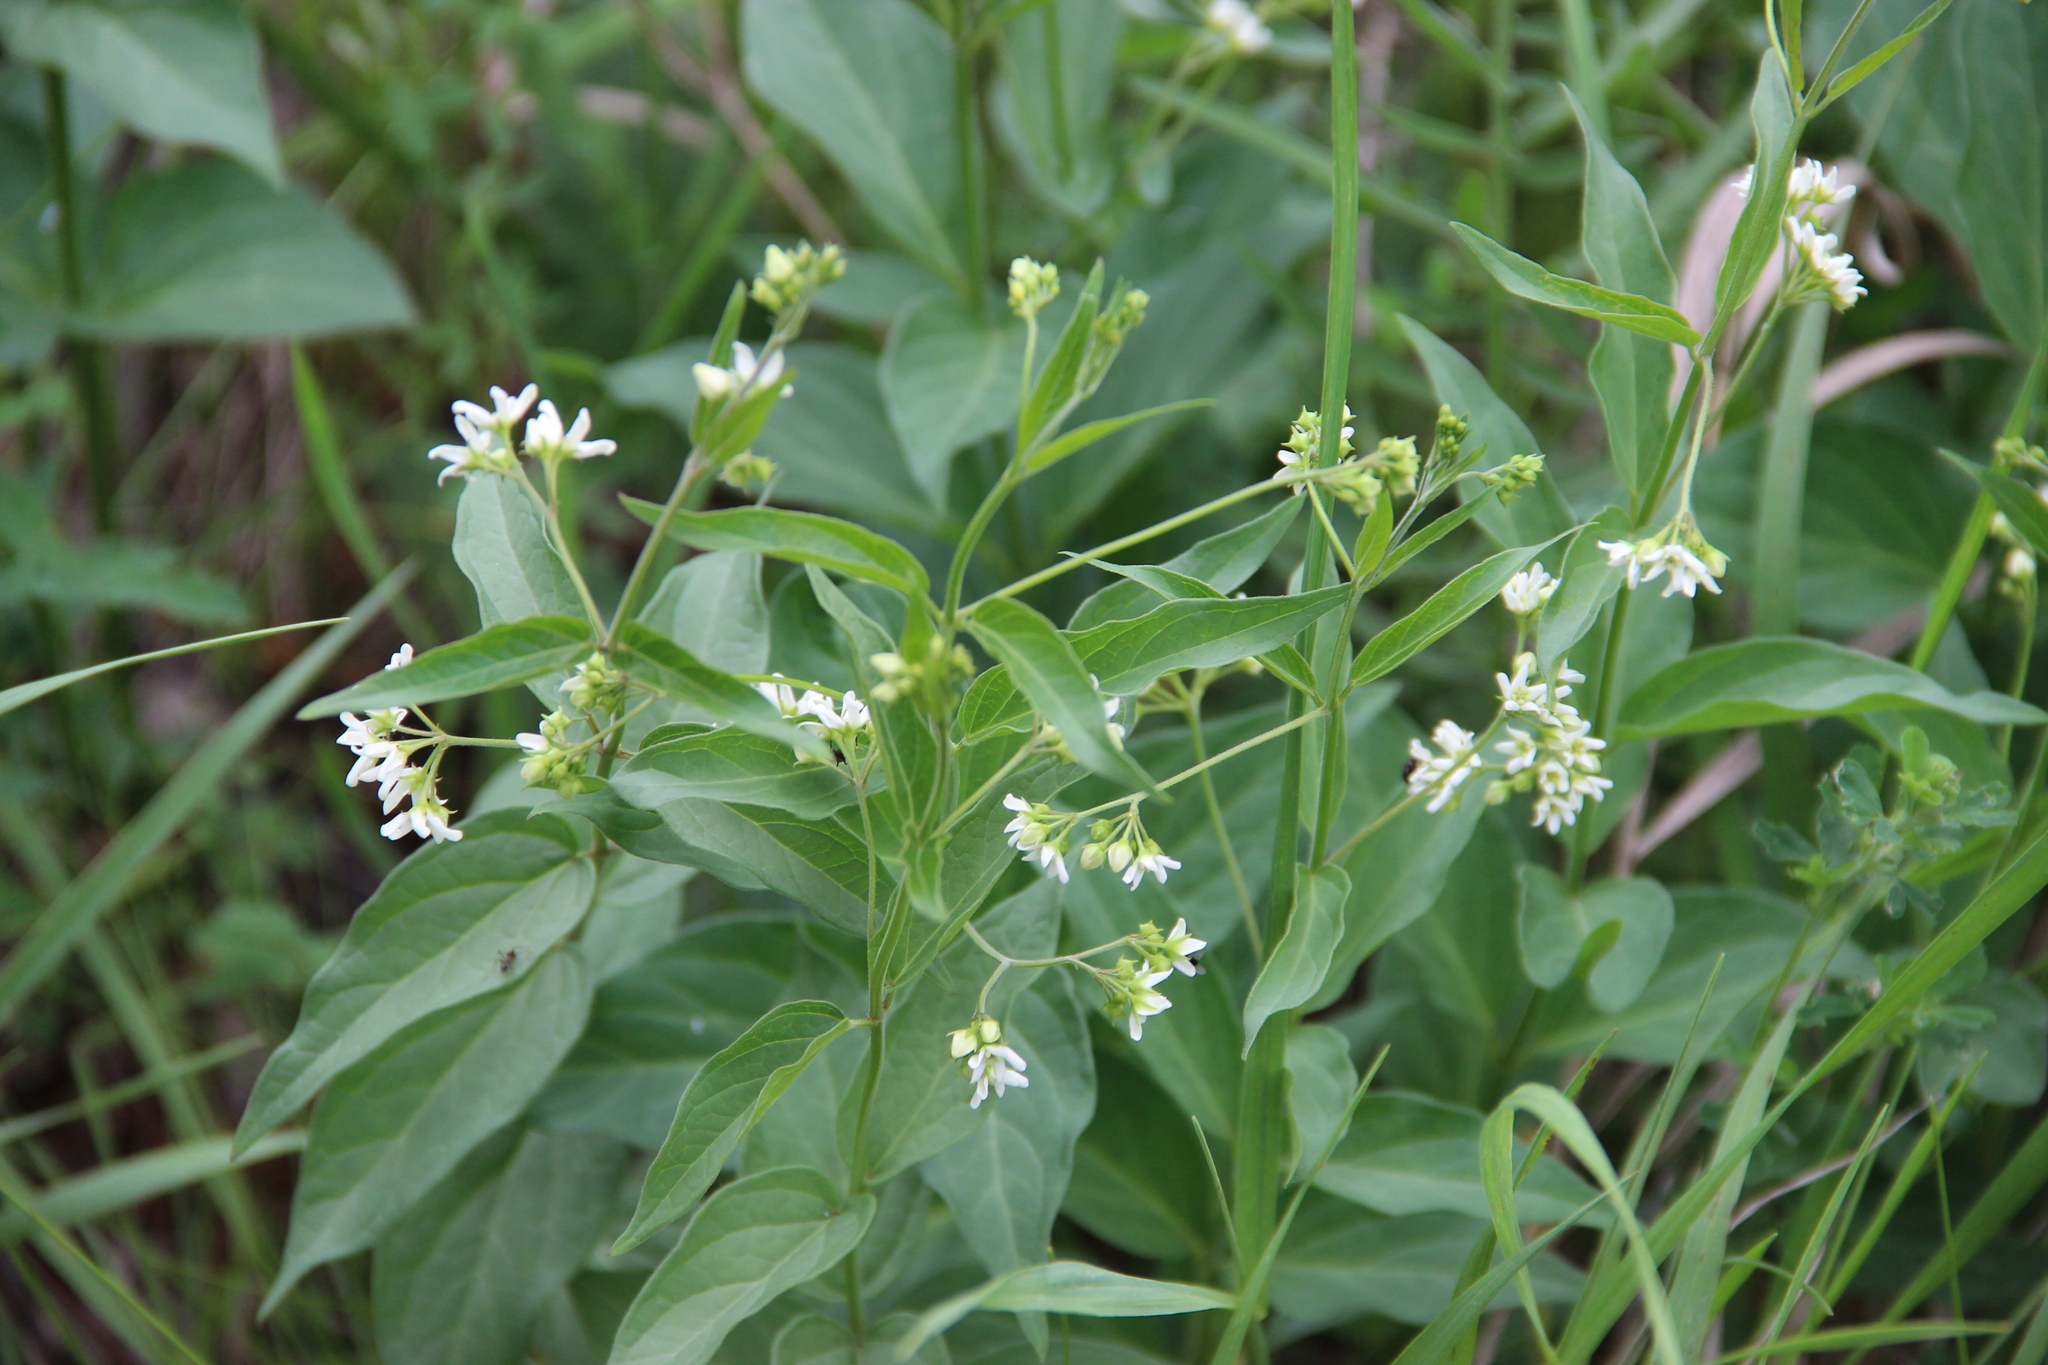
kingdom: Plantae
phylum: Tracheophyta
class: Magnoliopsida
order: Gentianales
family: Apocynaceae
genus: Vincetoxicum
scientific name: Vincetoxicum hirundinaria
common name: White swallowwort
